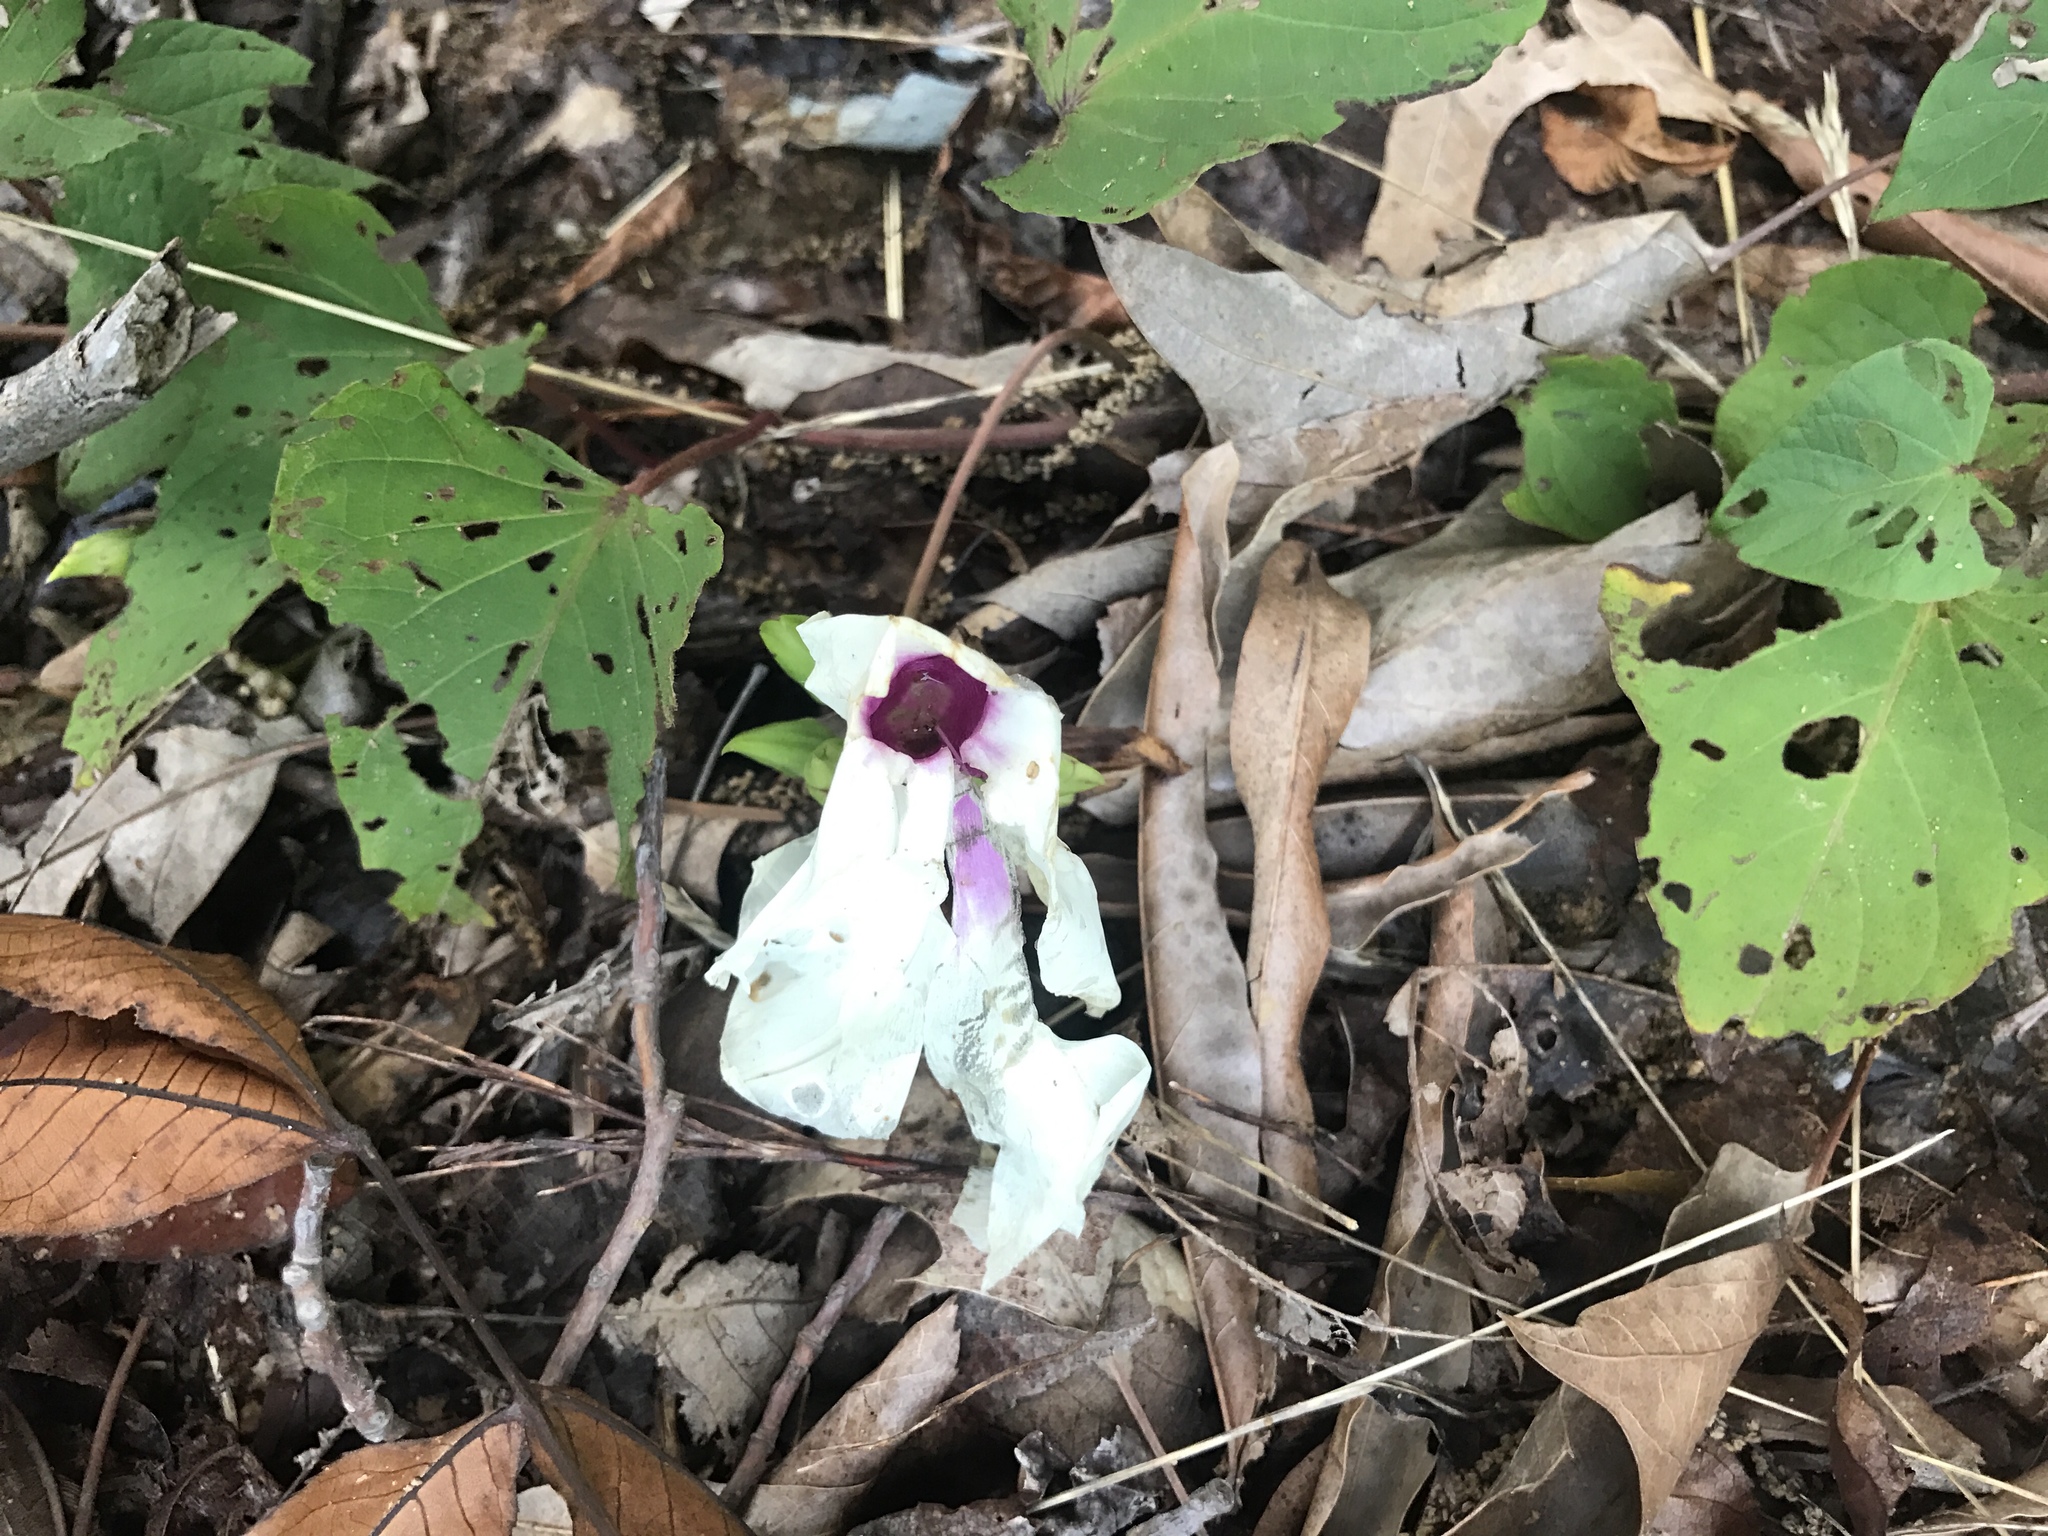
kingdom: Plantae
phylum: Tracheophyta
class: Magnoliopsida
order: Solanales
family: Convolvulaceae
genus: Ipomoea
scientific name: Ipomoea pandurata
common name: Man-of-the-earth
